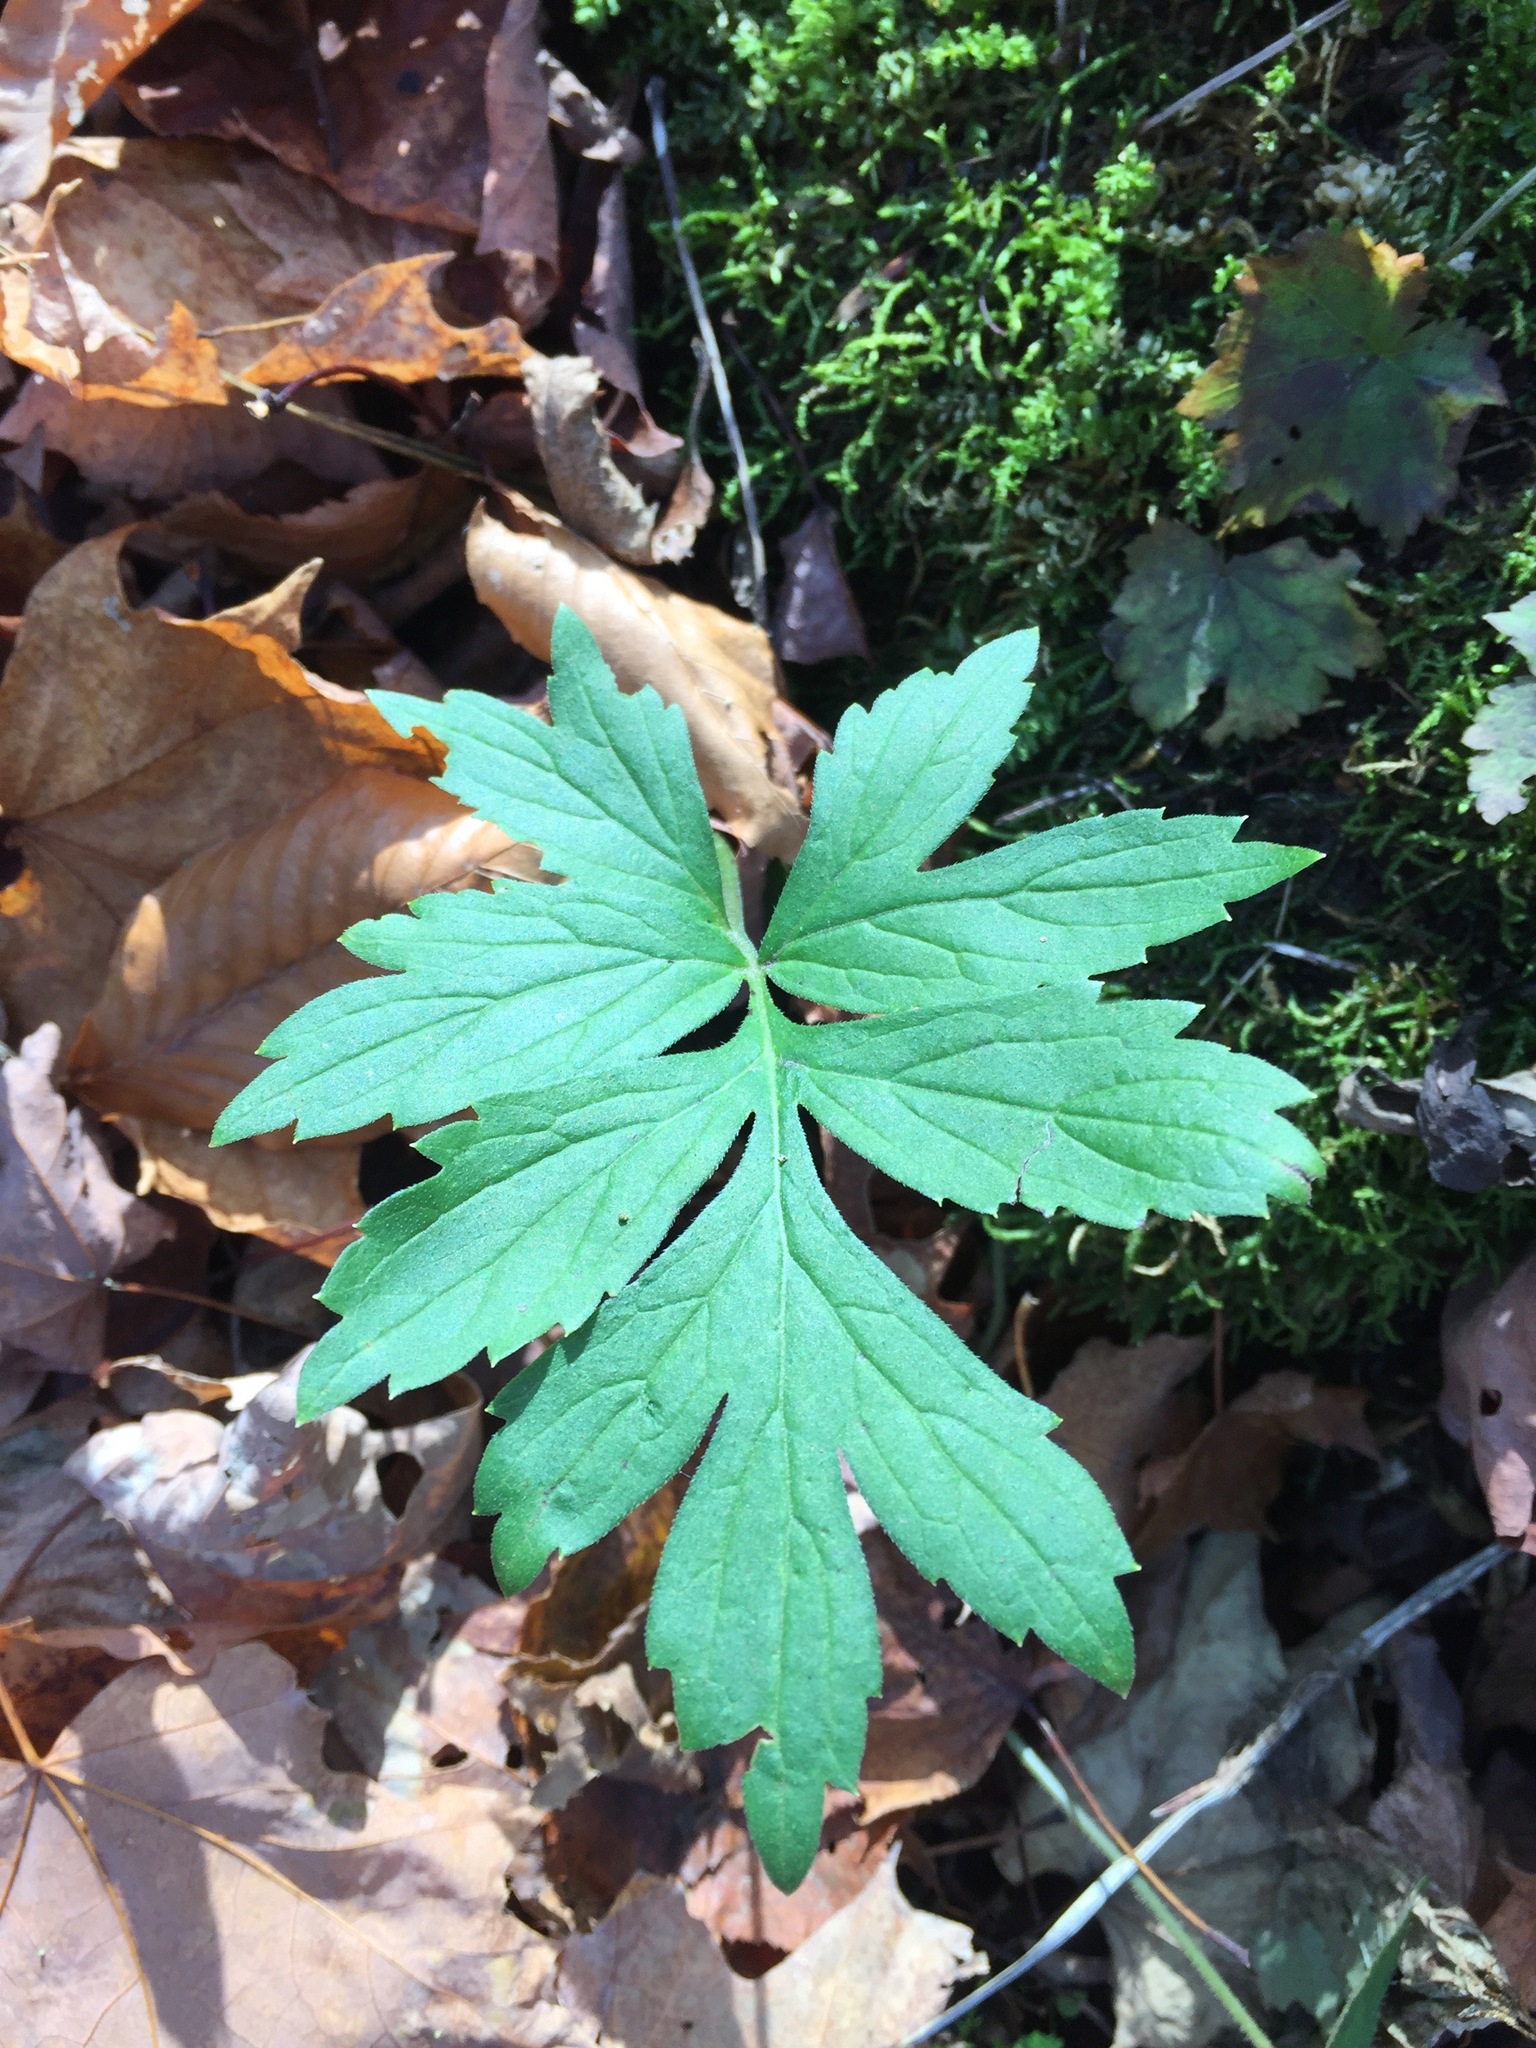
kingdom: Plantae
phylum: Tracheophyta
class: Magnoliopsida
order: Boraginales
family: Hydrophyllaceae
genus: Hydrophyllum
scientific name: Hydrophyllum virginianum
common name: Virginia waterleaf
